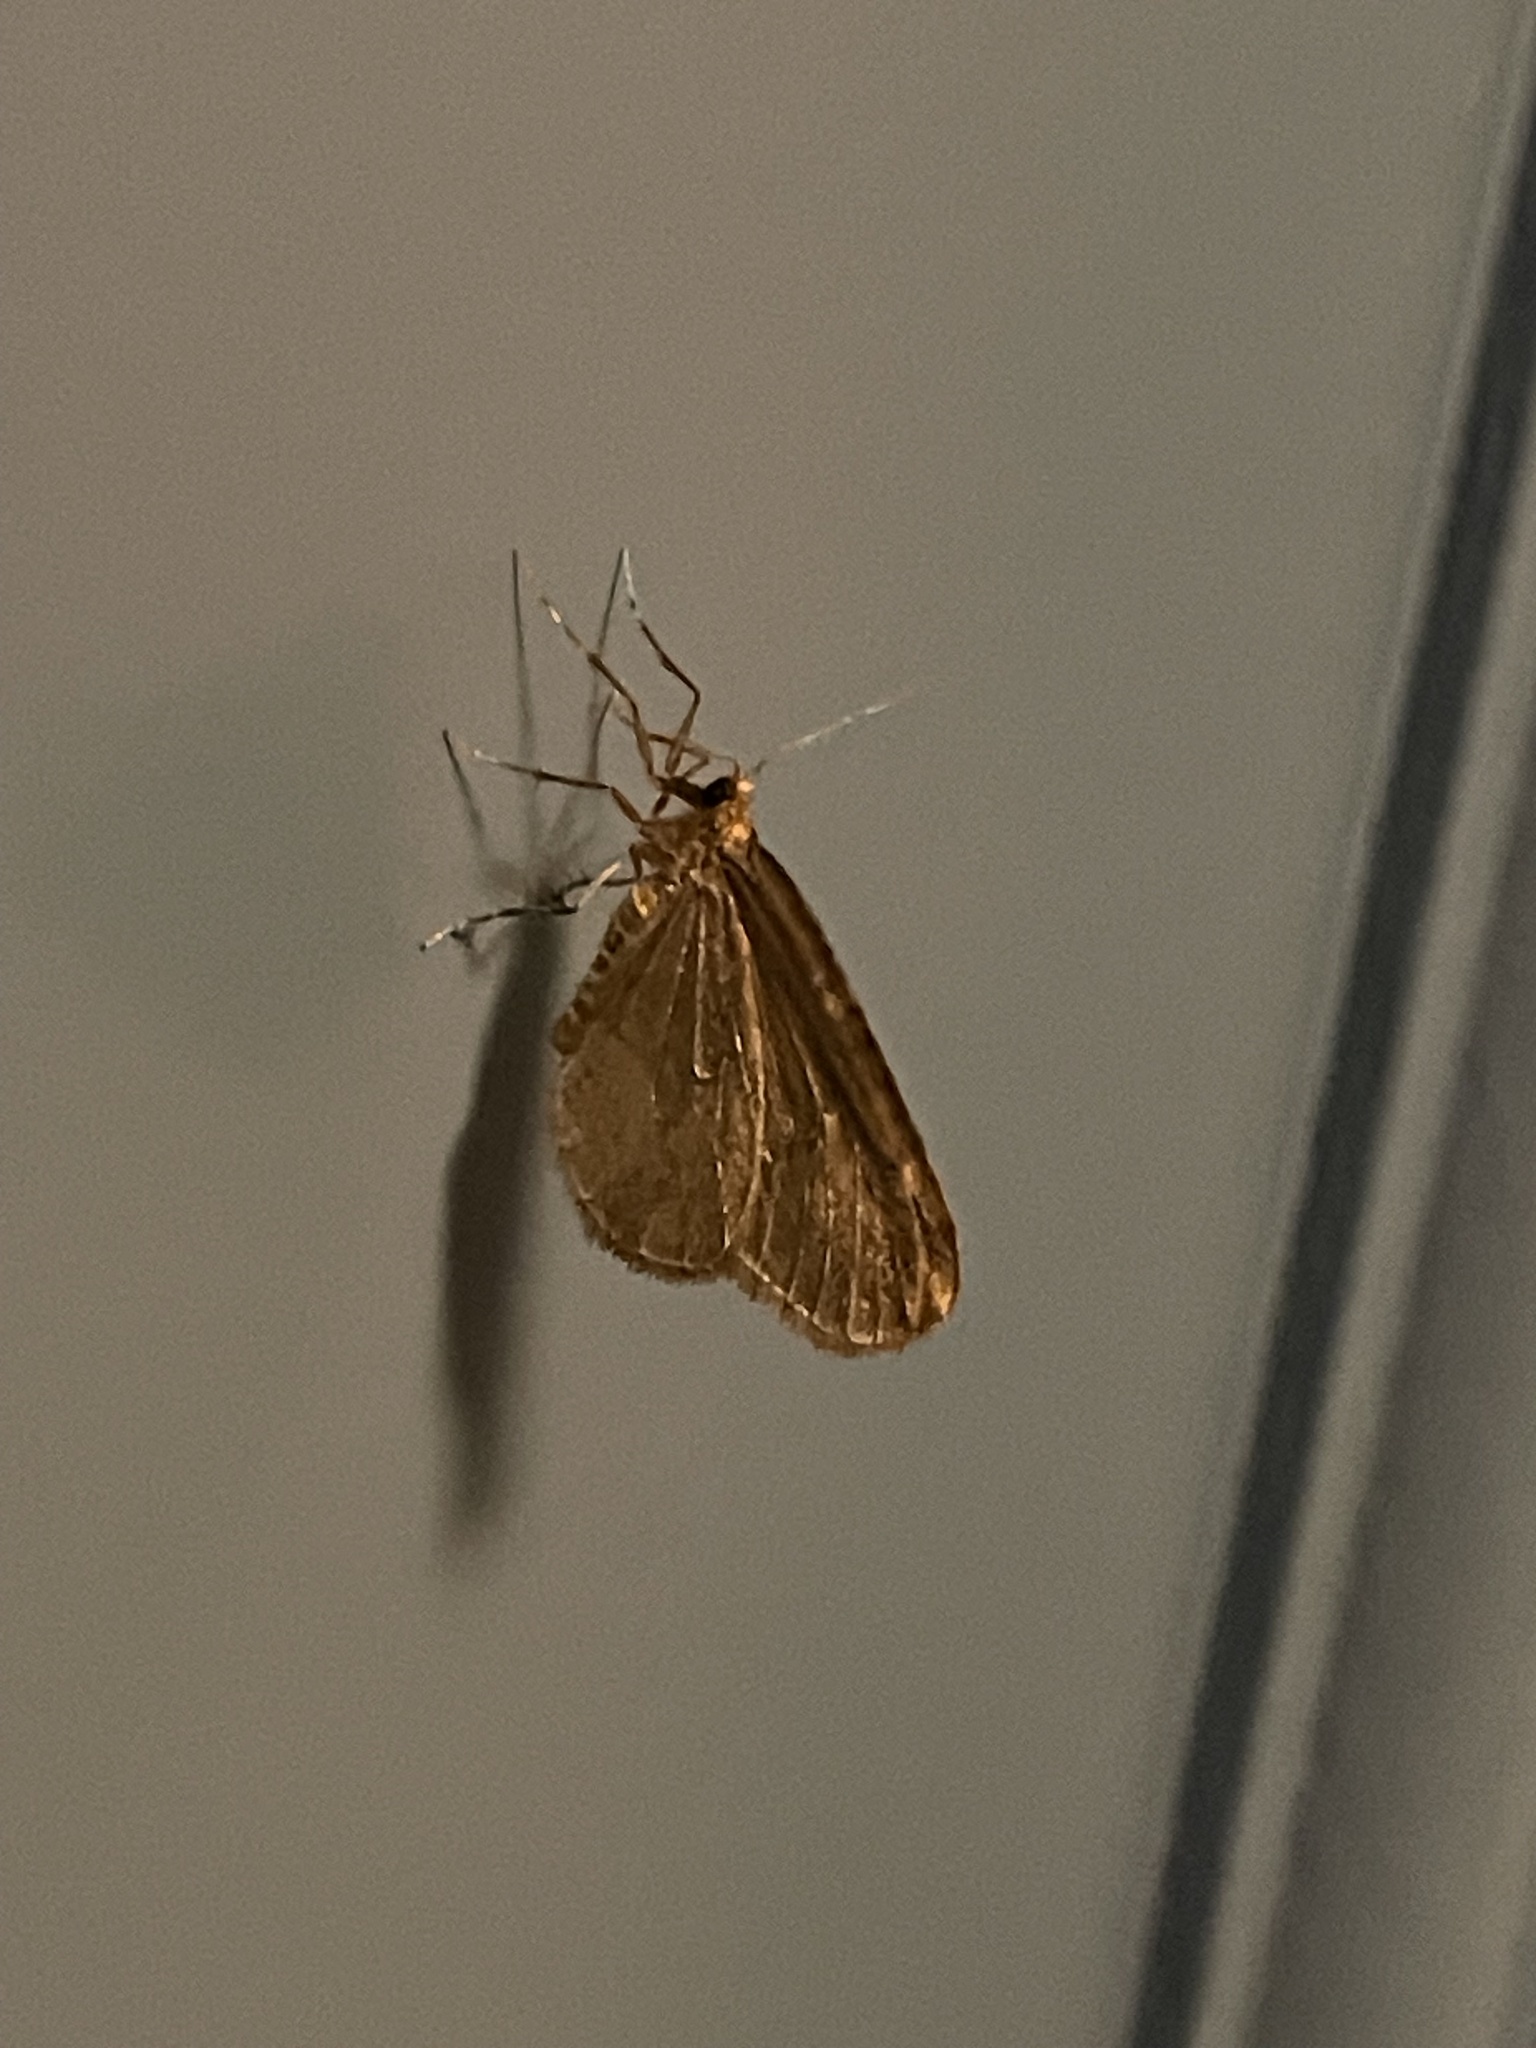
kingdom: Animalia
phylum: Arthropoda
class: Insecta
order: Lepidoptera
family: Geometridae
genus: Operophtera
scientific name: Operophtera brumata
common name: Winter moth
